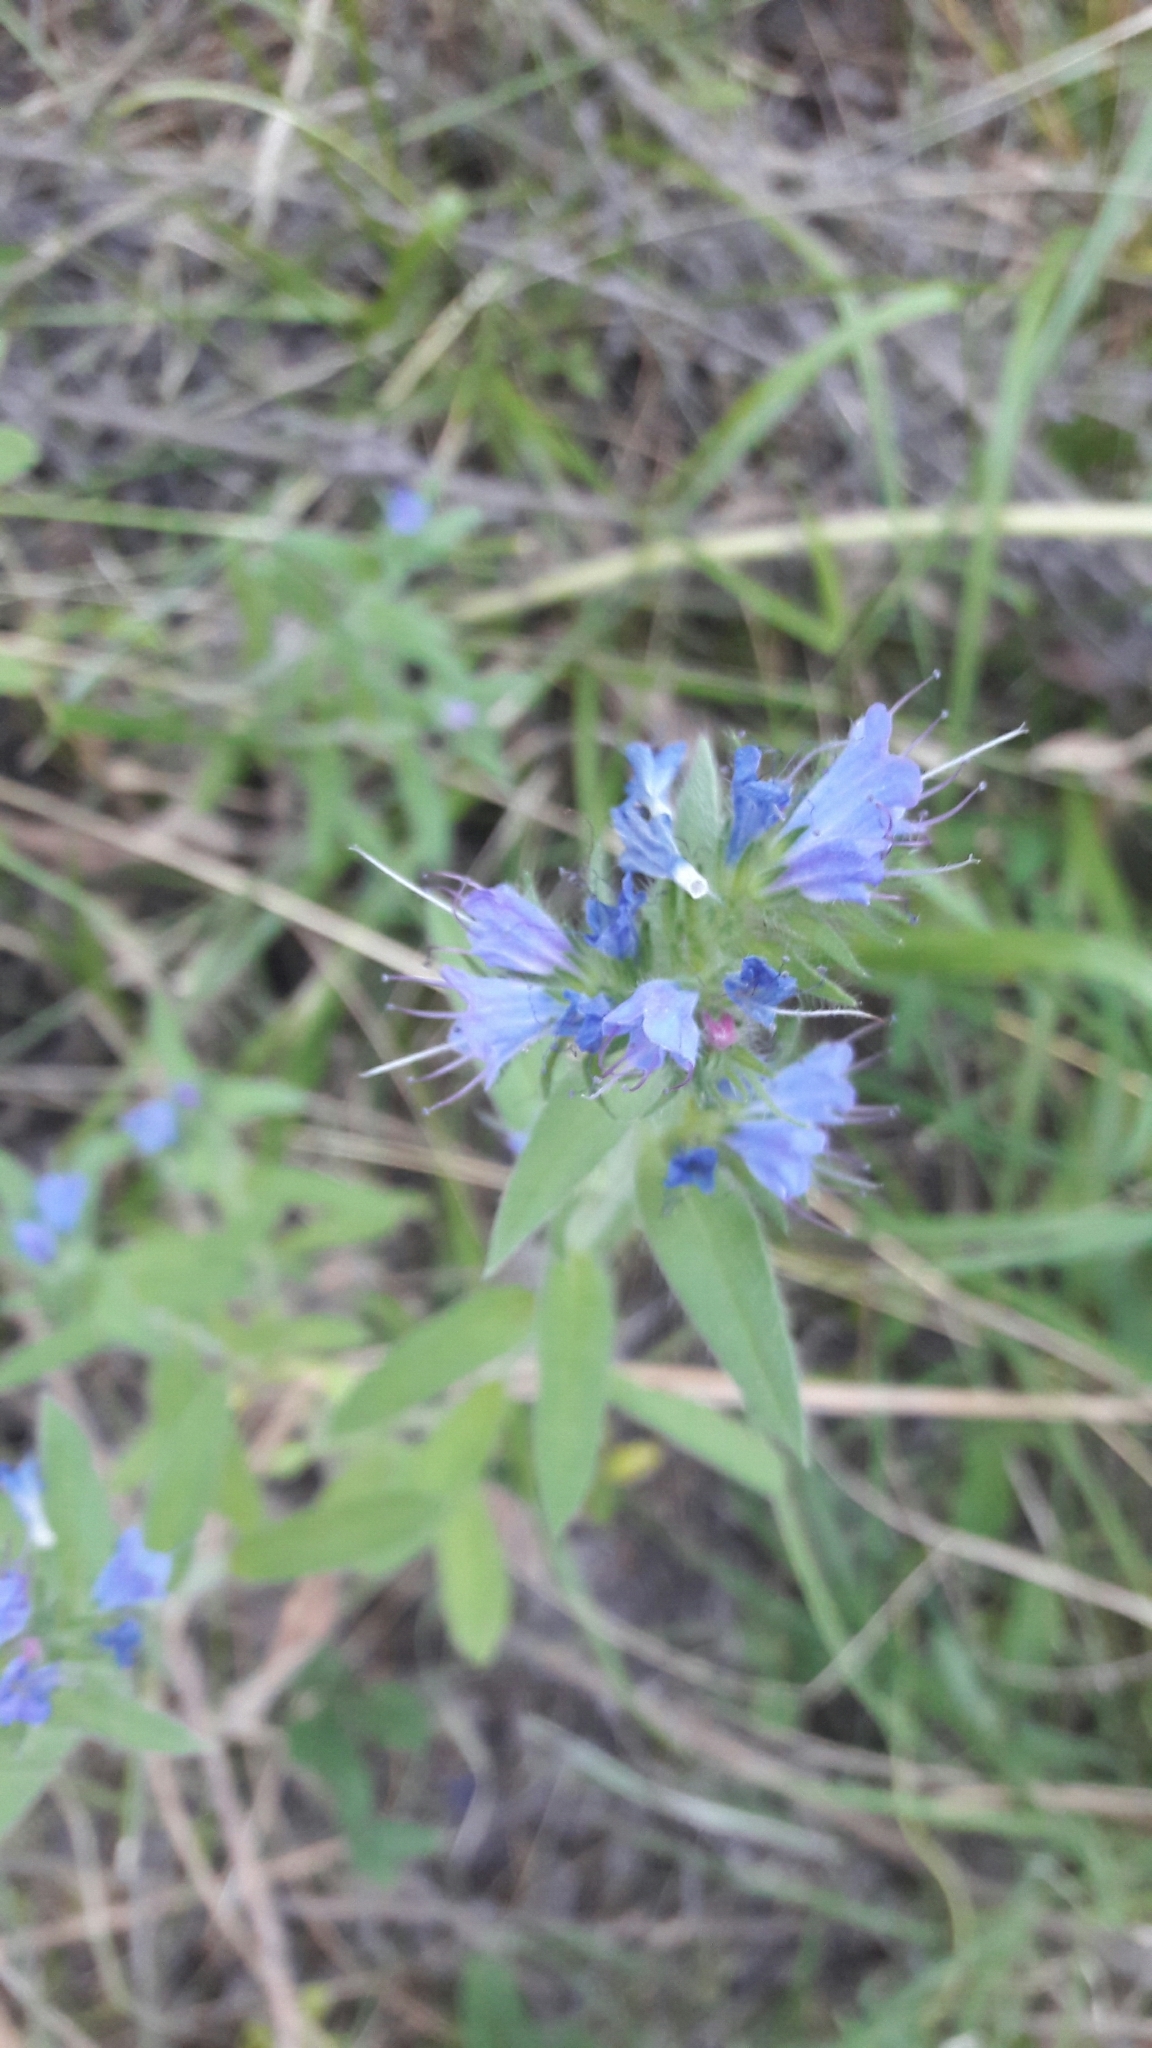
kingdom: Plantae
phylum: Tracheophyta
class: Magnoliopsida
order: Boraginales
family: Boraginaceae
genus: Echium
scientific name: Echium vulgare
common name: Common viper's bugloss
